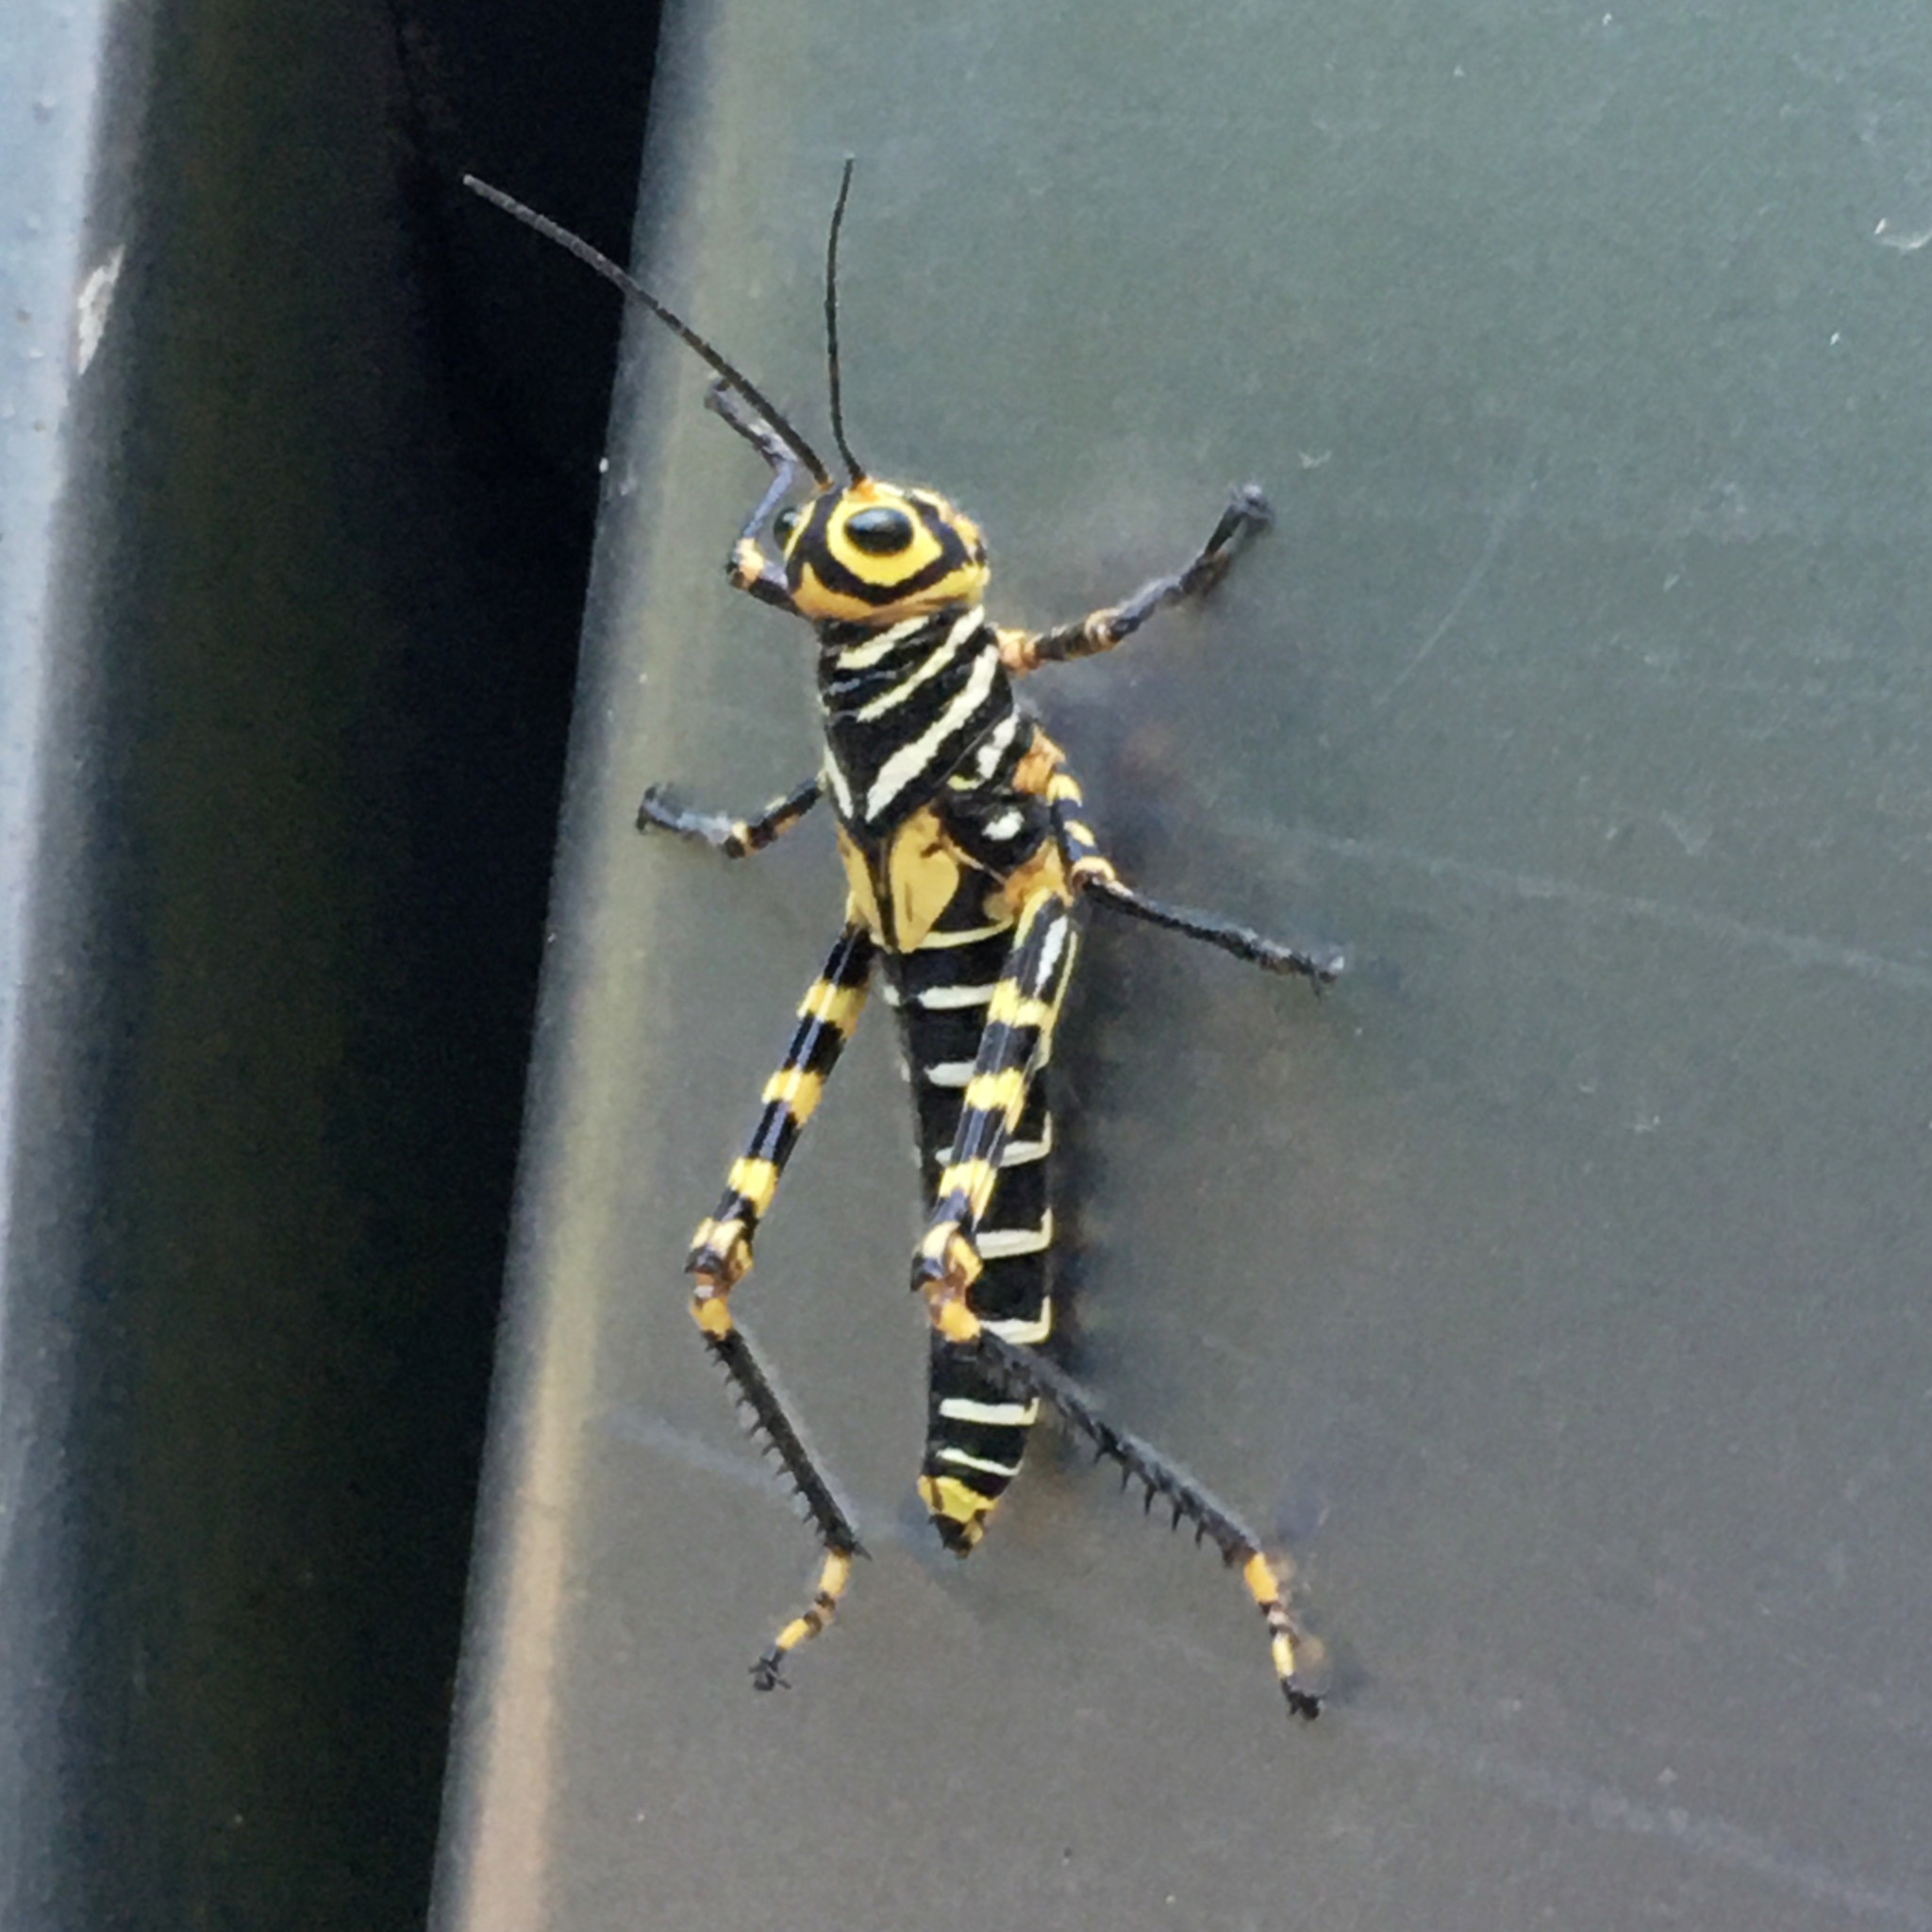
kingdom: Animalia
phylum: Arthropoda
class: Insecta
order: Orthoptera
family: Romaleidae
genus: Tropidacris
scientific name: Tropidacris cristata
